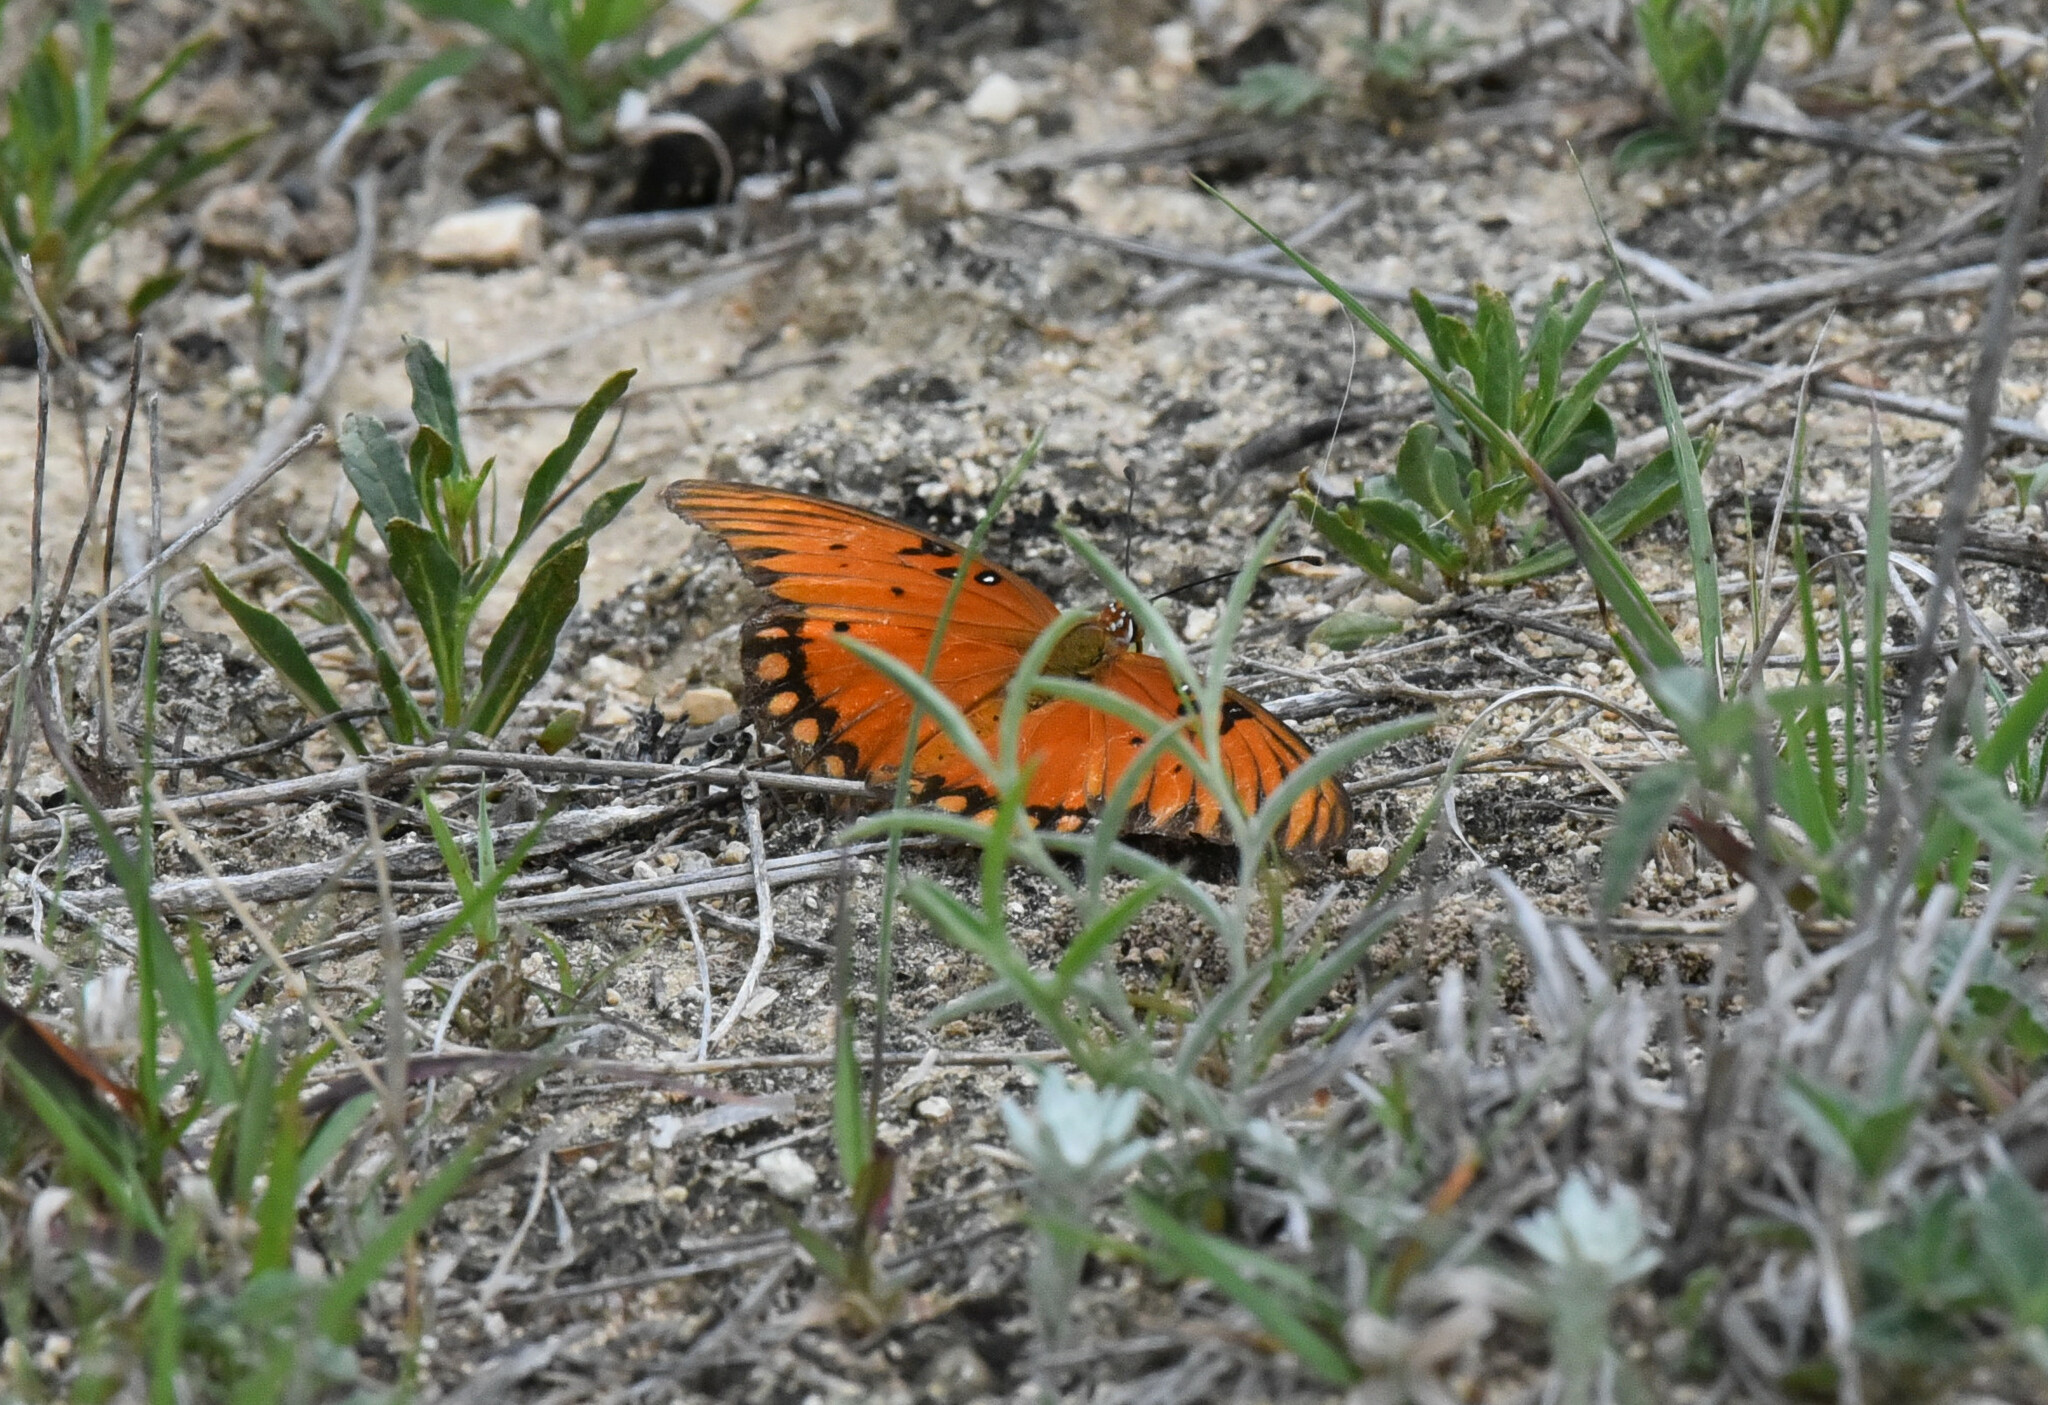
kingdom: Animalia
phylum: Arthropoda
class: Insecta
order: Lepidoptera
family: Nymphalidae
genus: Dione
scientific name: Dione vanillae
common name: Gulf fritillary
